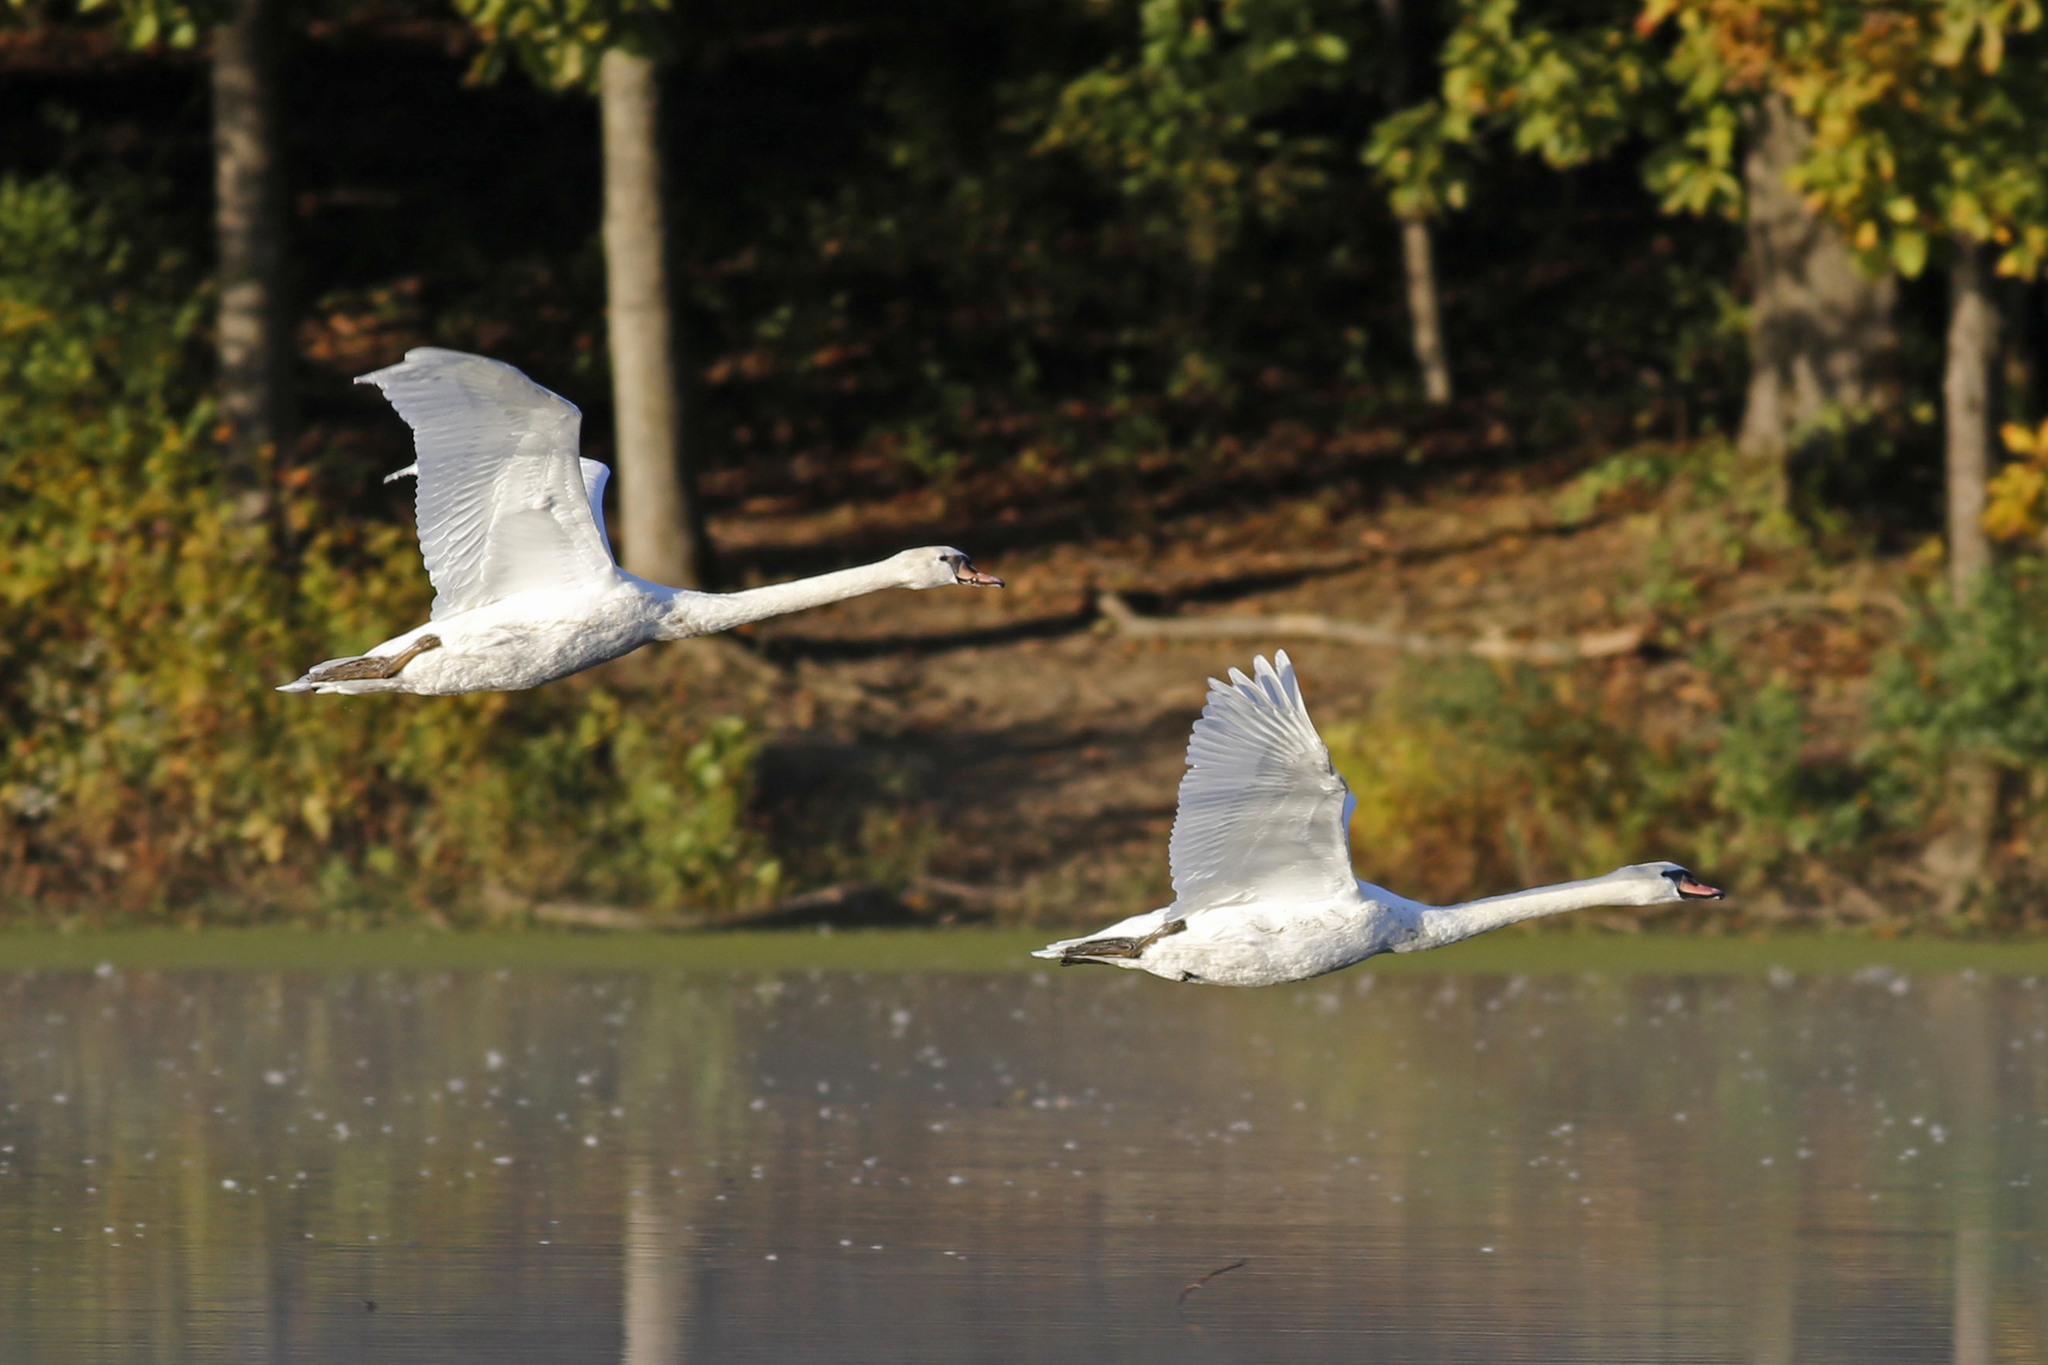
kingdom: Animalia
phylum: Chordata
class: Aves
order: Anseriformes
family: Anatidae
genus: Cygnus
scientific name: Cygnus olor
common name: Mute swan
